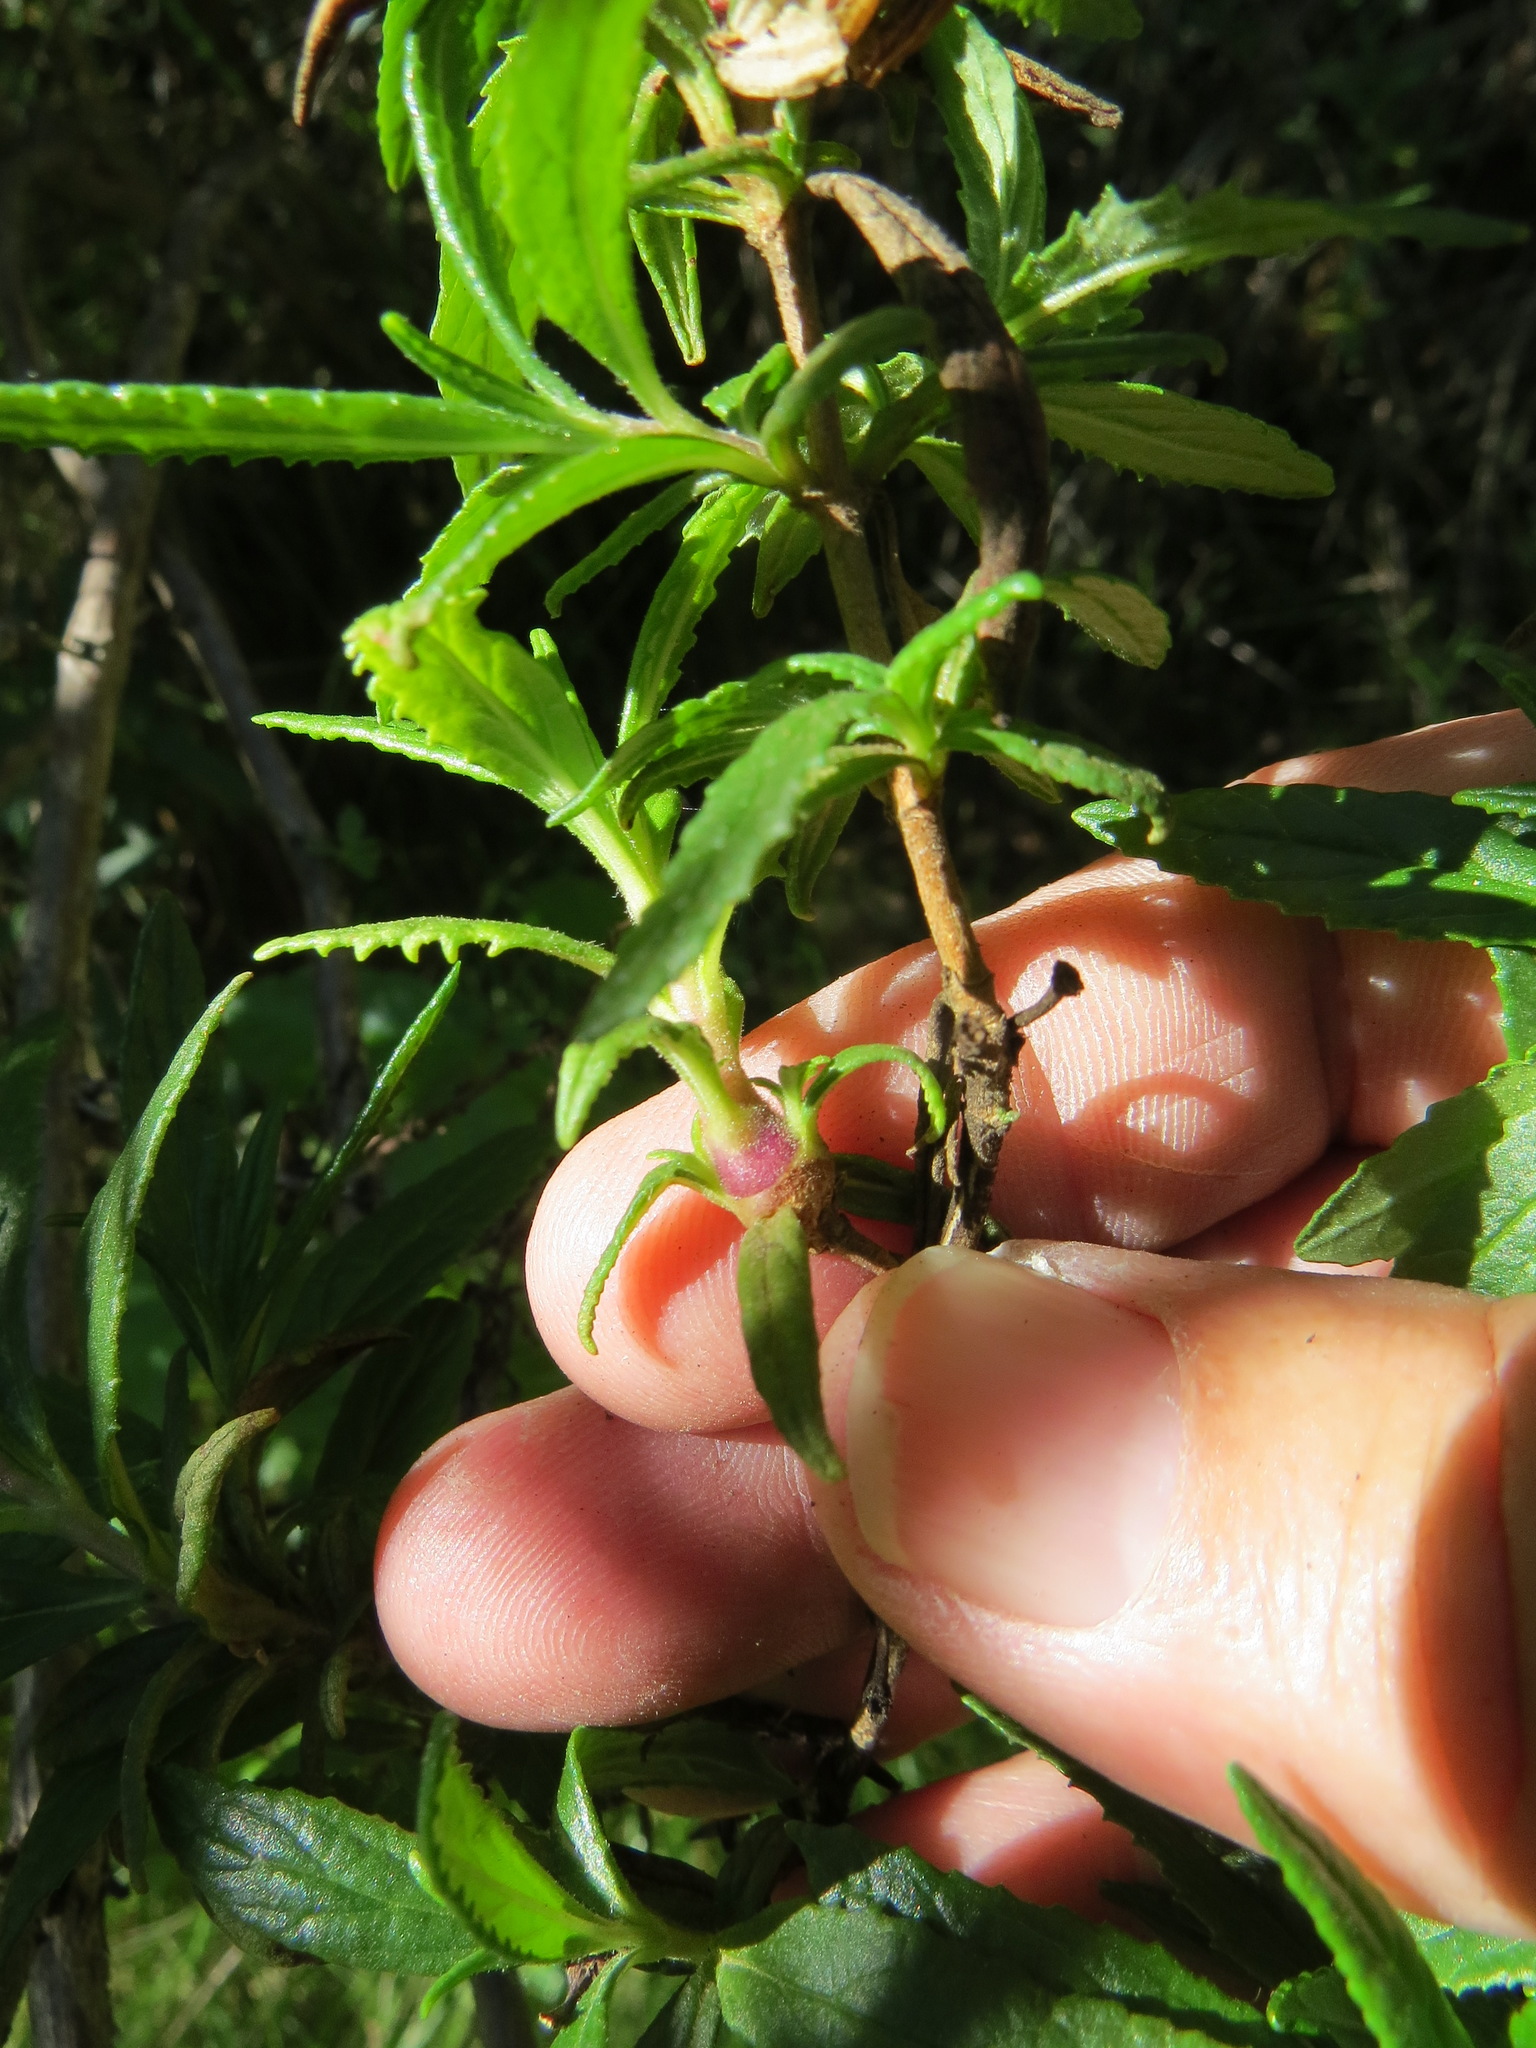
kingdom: Animalia
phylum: Arthropoda
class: Insecta
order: Diptera
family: Cecidomyiidae
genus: Neolasioptera
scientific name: Neolasioptera mimuli
